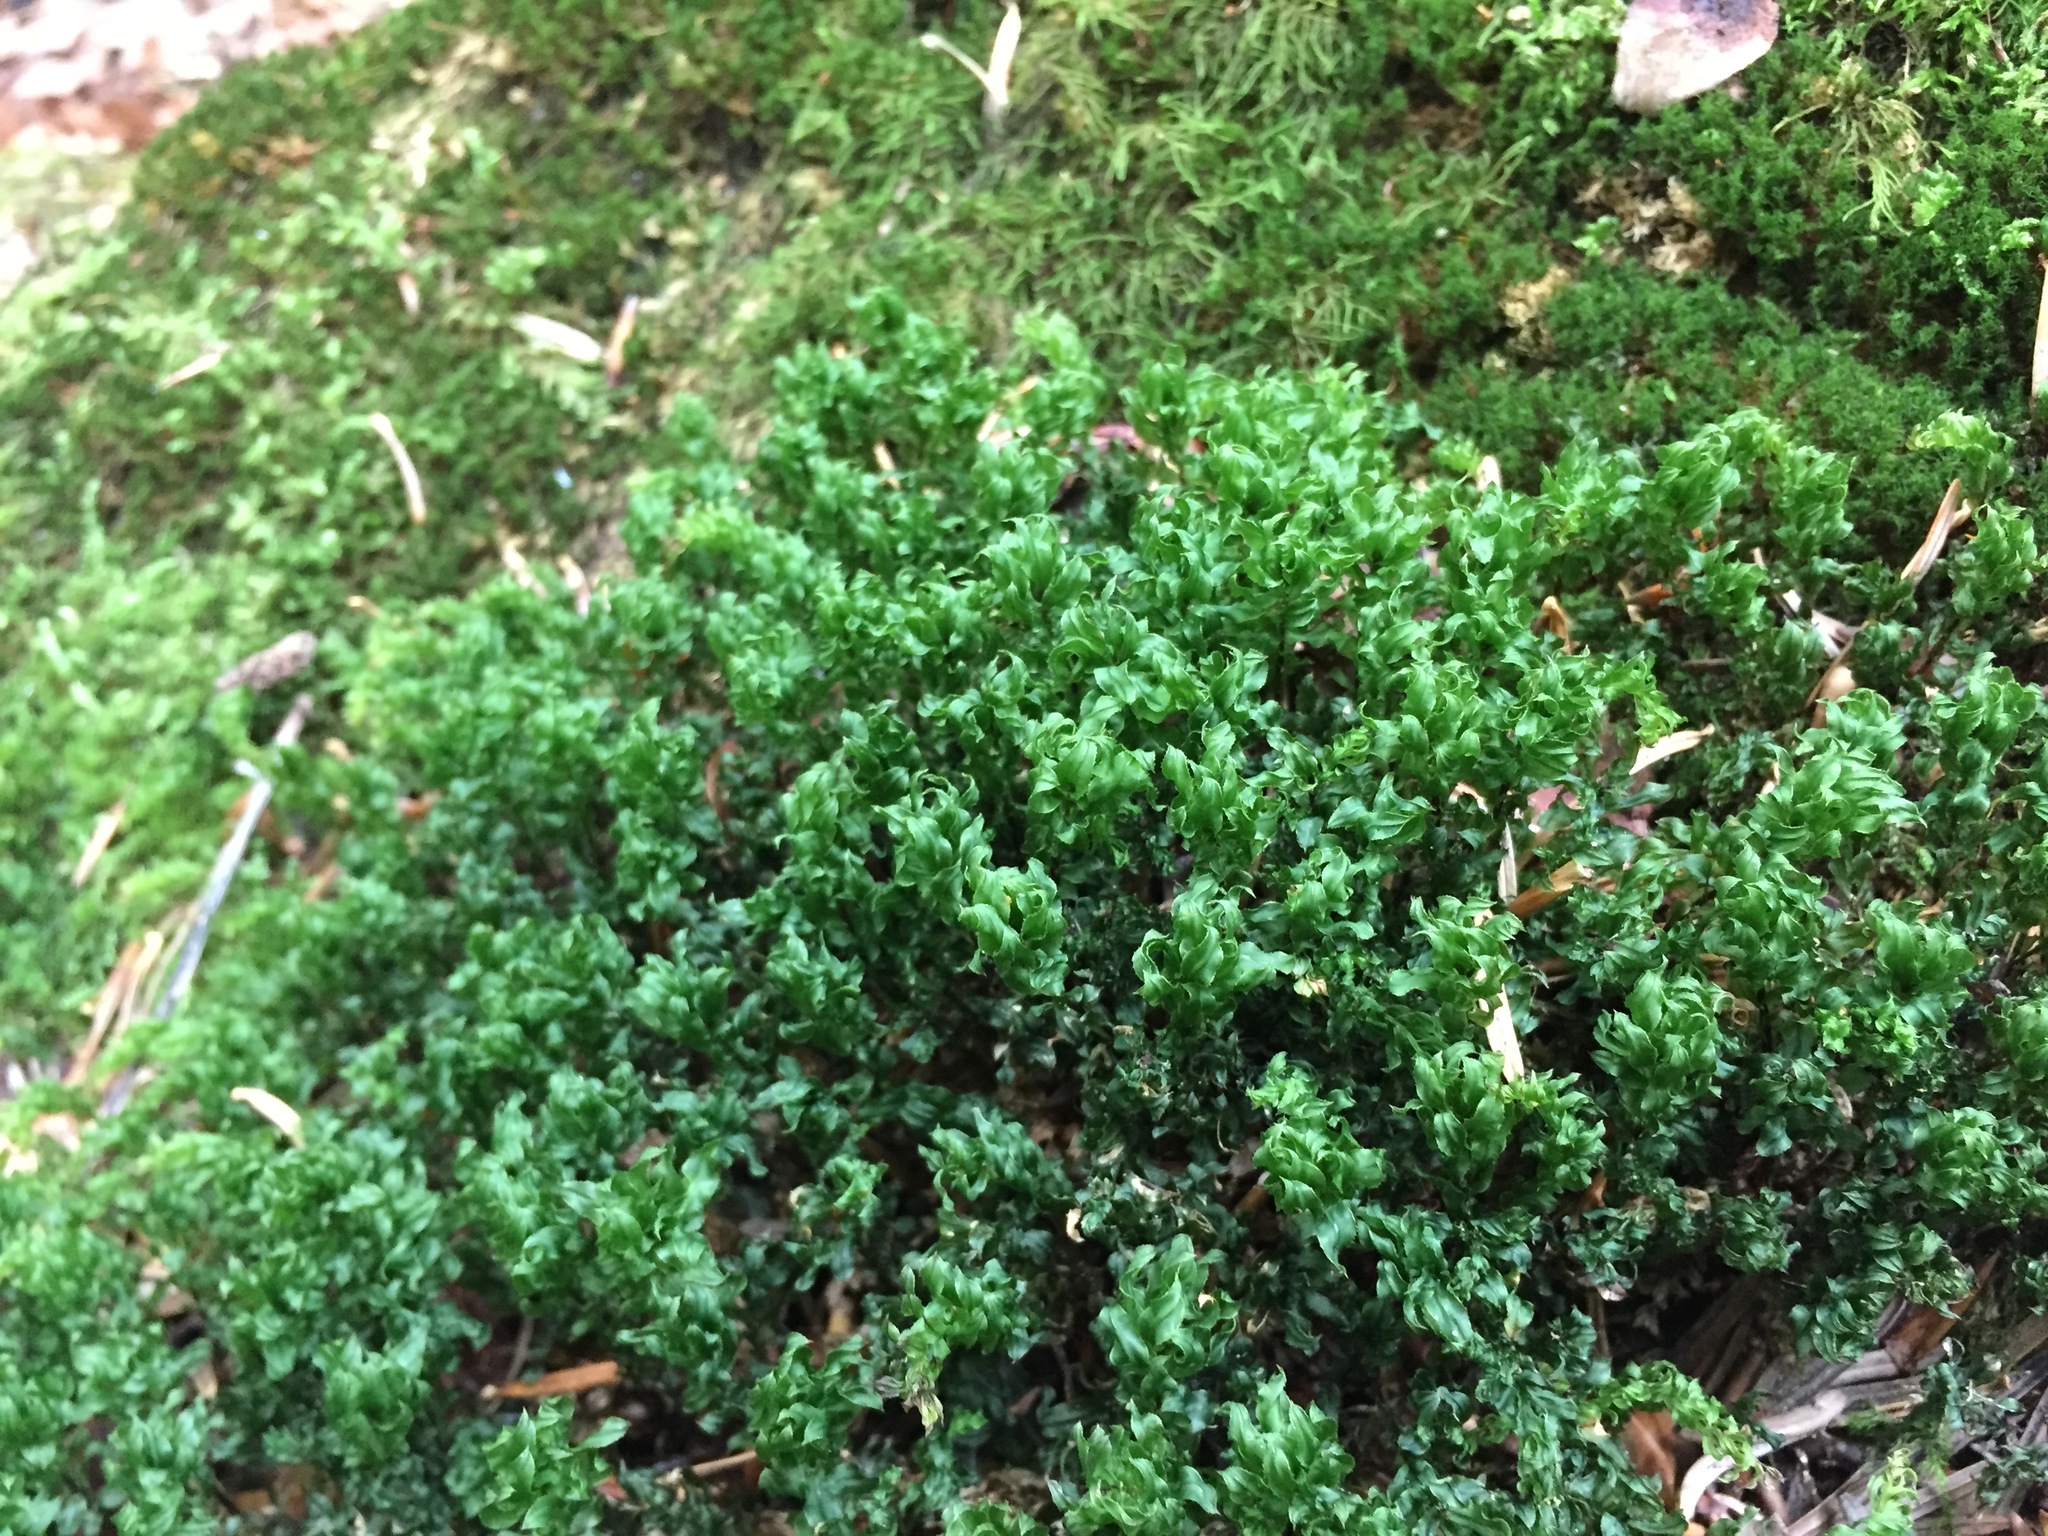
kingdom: Plantae
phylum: Bryophyta
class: Bryopsida
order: Bryales
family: Mniaceae
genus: Plagiomnium
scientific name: Plagiomnium undulatum
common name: Hart's-tongue thyme-moss
